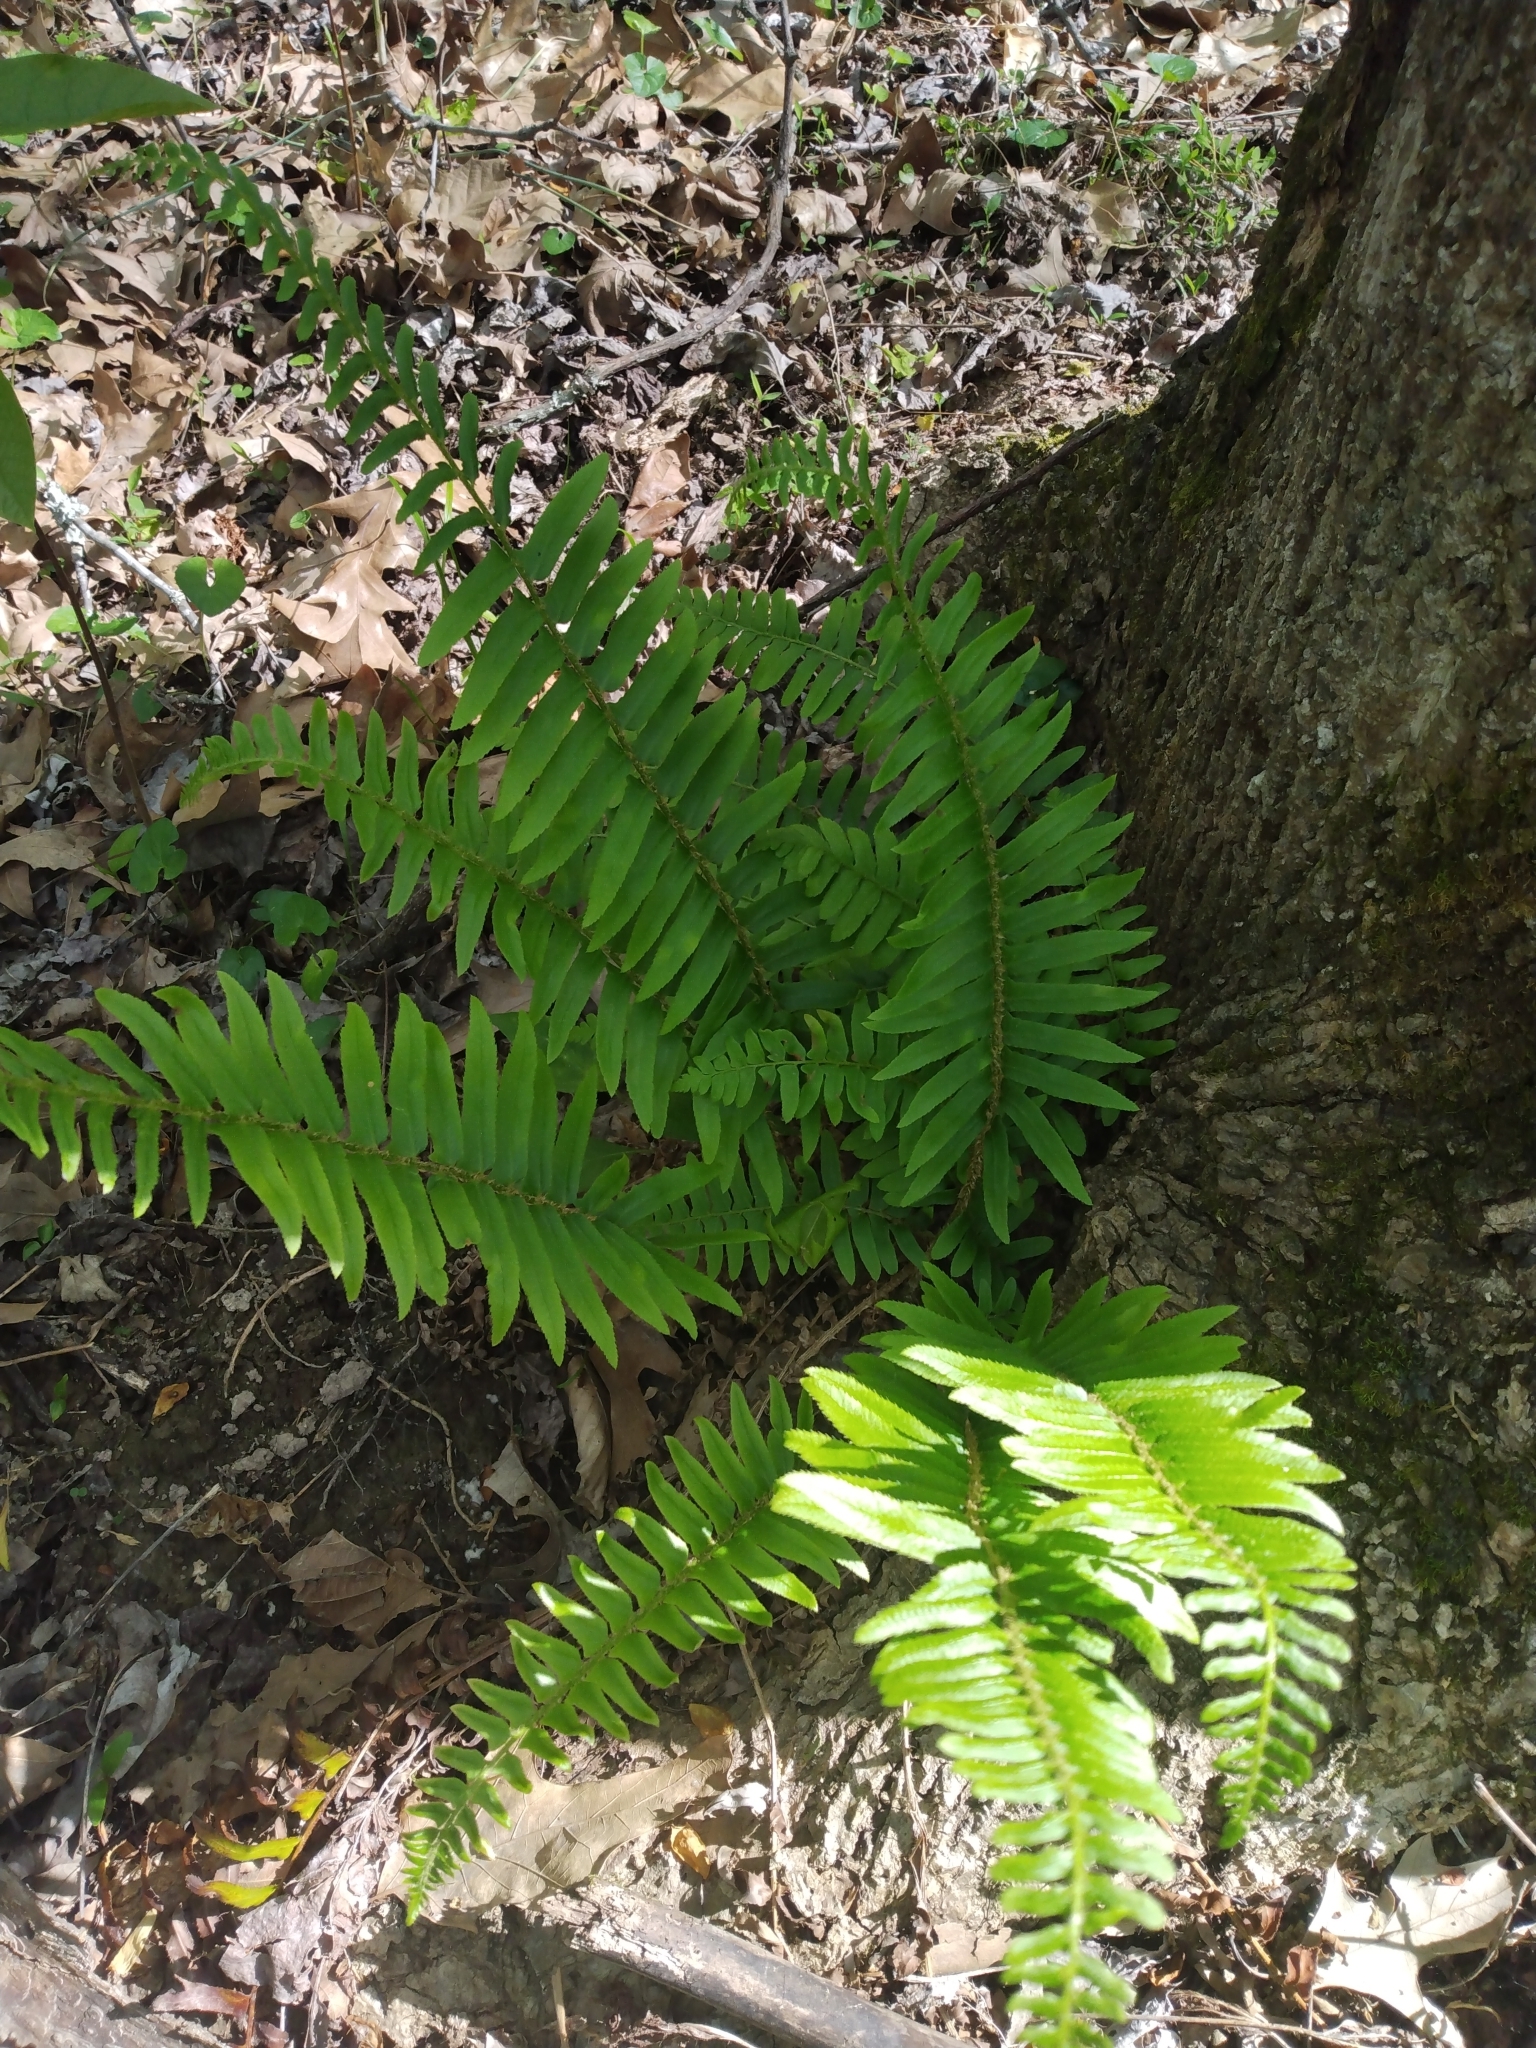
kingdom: Plantae
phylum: Tracheophyta
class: Polypodiopsida
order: Polypodiales
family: Dryopteridaceae
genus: Polystichum
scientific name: Polystichum acrostichoides
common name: Christmas fern
